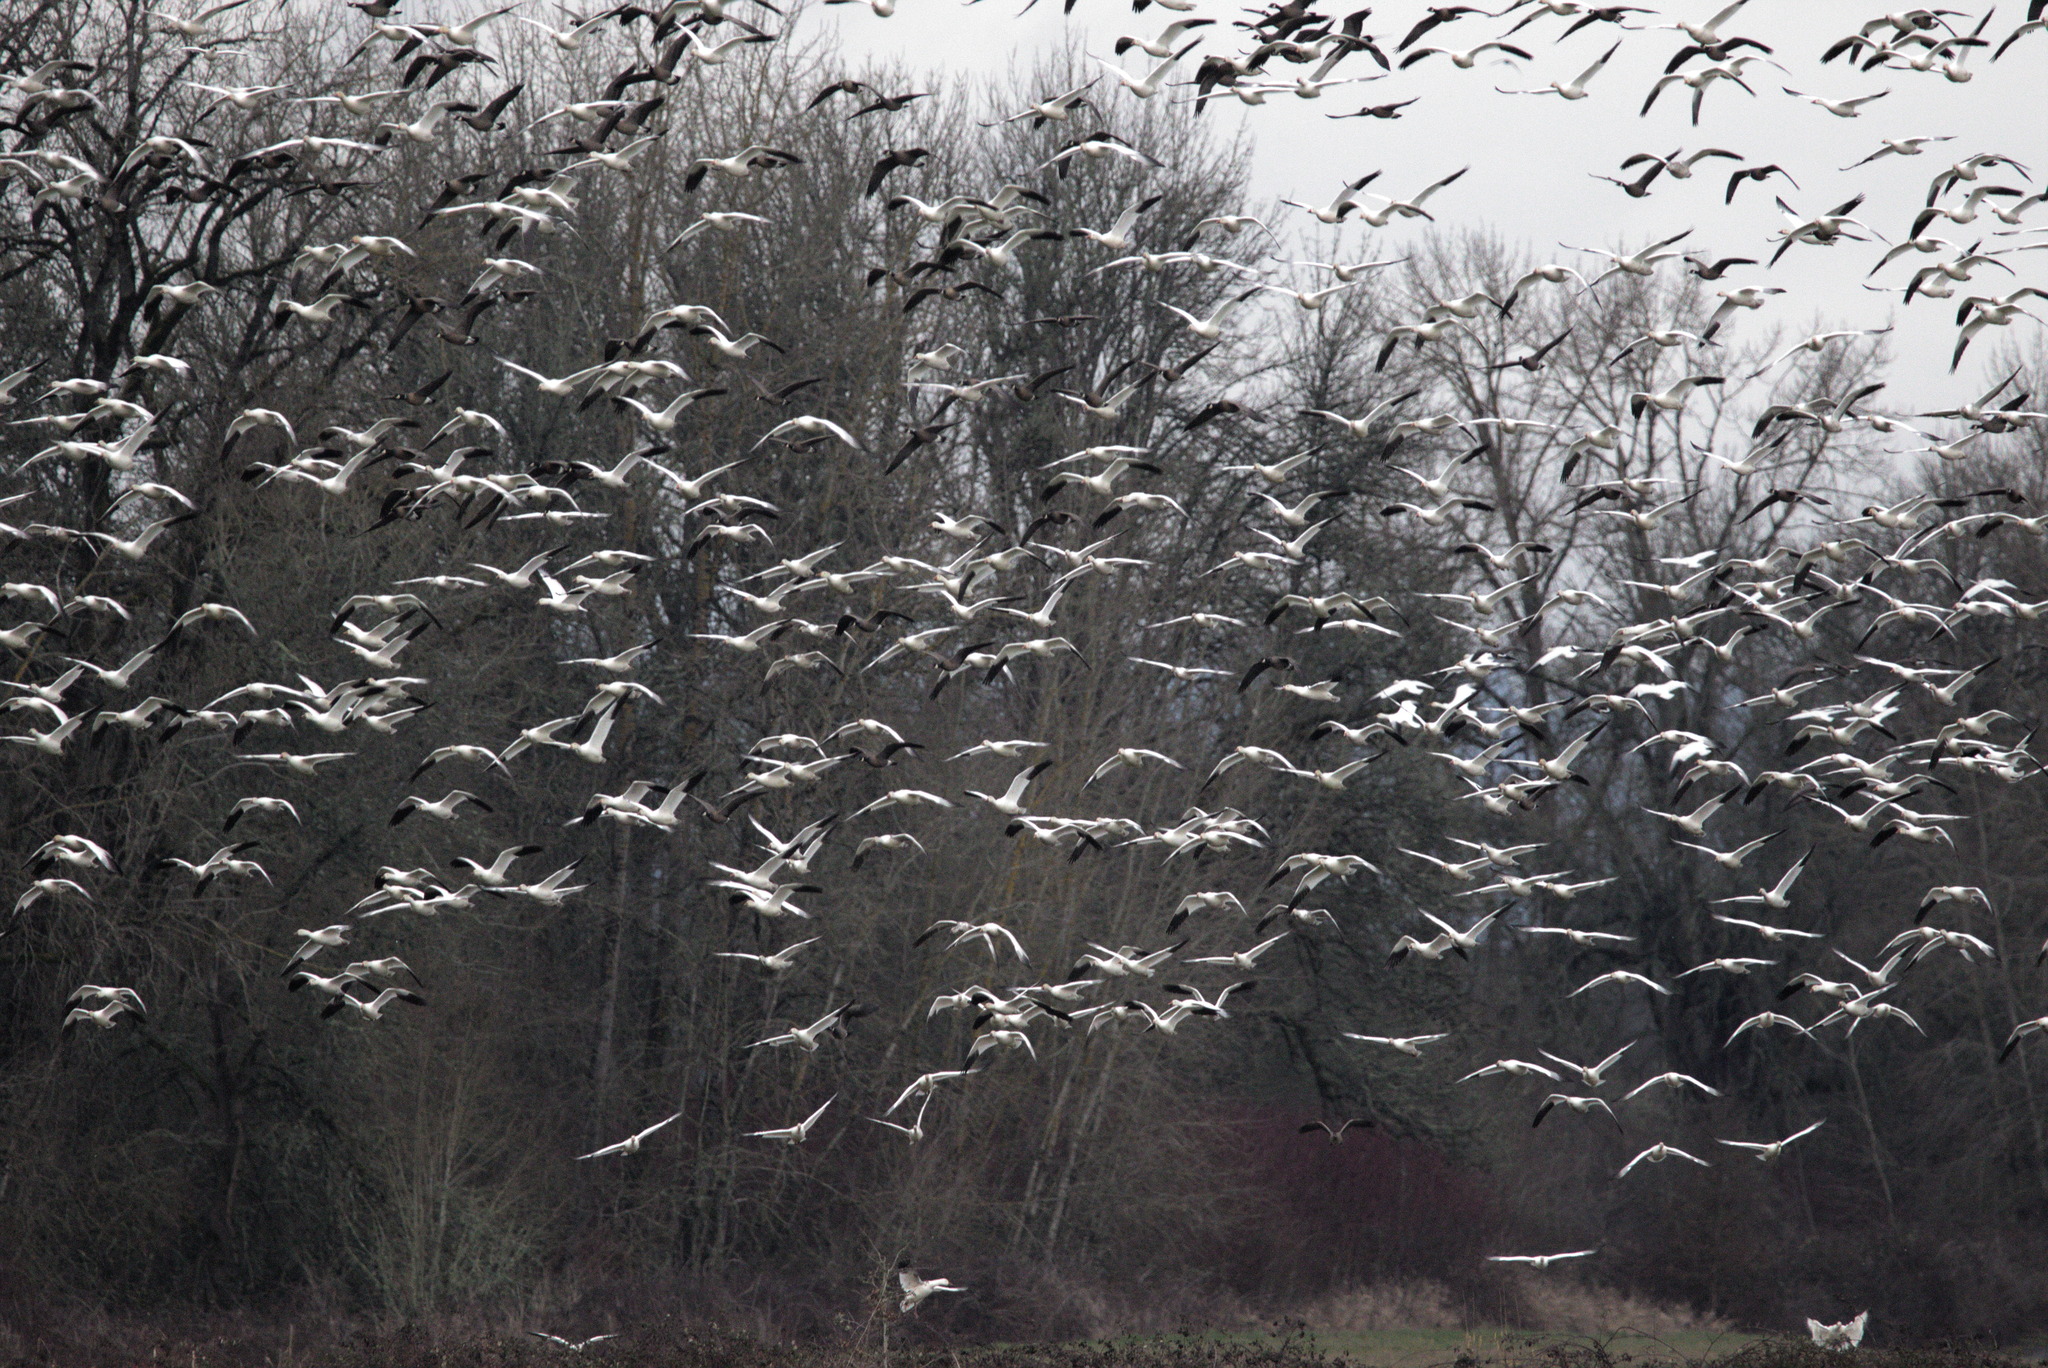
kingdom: Animalia
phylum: Chordata
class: Aves
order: Anseriformes
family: Anatidae
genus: Anser
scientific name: Anser caerulescens
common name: Snow goose
